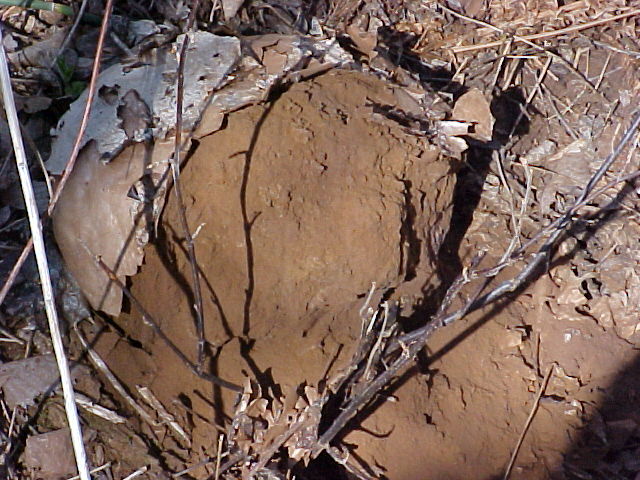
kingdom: Fungi
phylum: Basidiomycota
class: Agaricomycetes
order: Agaricales
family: Lycoperdaceae
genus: Calvatia
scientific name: Calvatia gigantea
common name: Giant puffball
